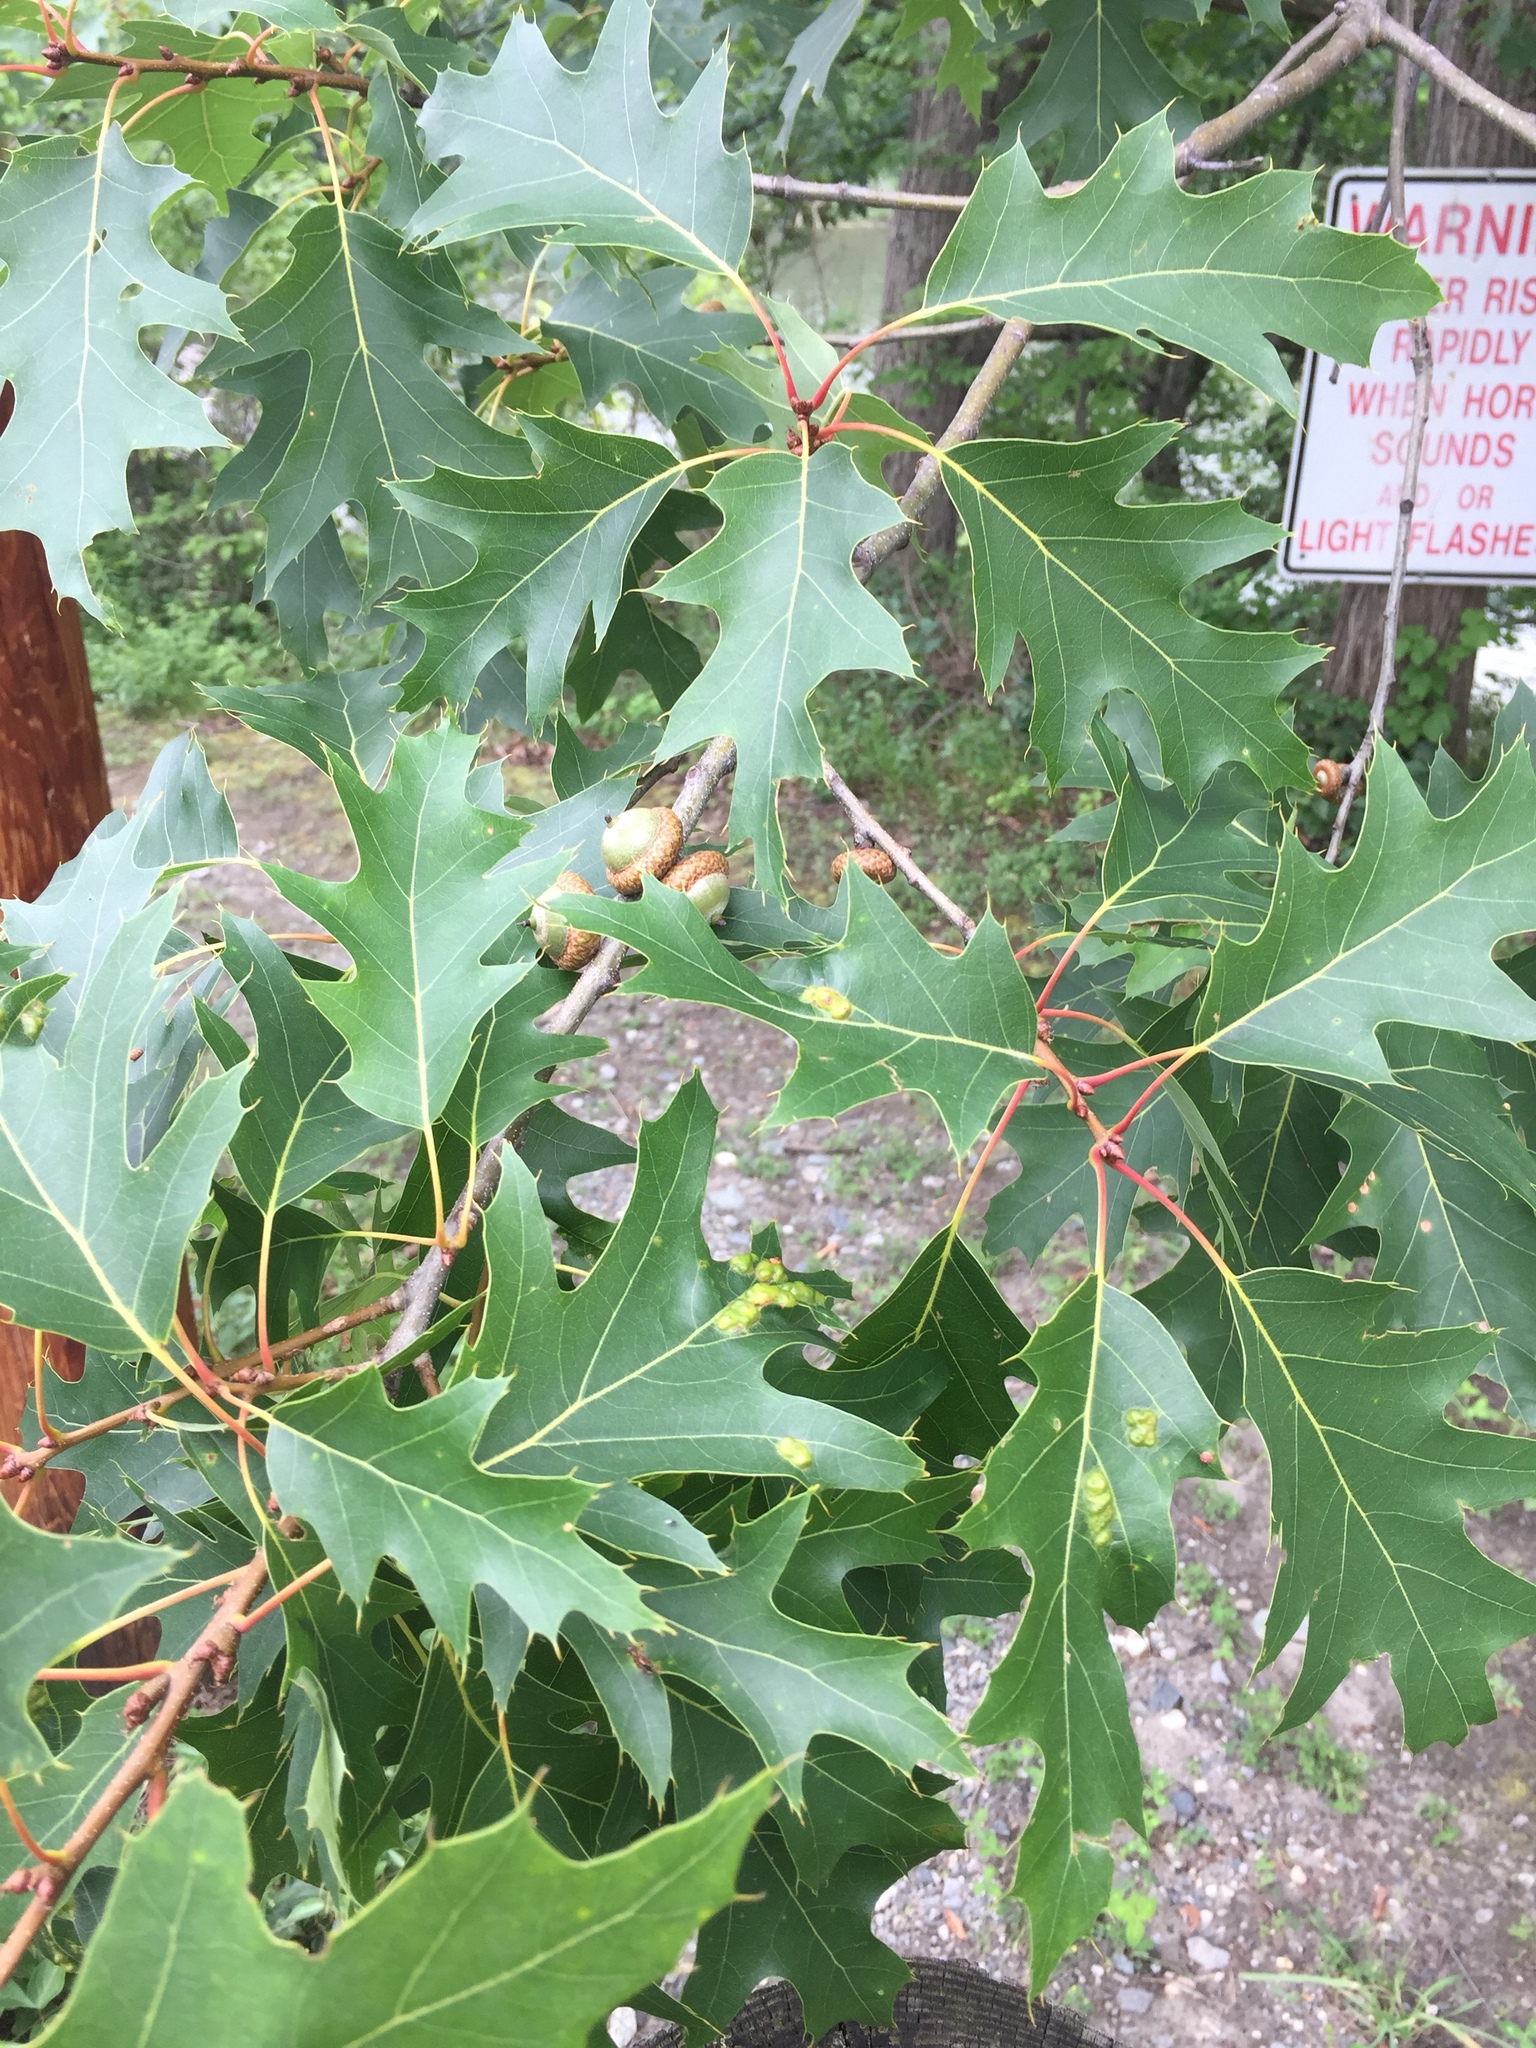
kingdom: Plantae
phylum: Tracheophyta
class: Magnoliopsida
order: Fagales
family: Fagaceae
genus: Quercus
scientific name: Quercus rubra
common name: Red oak
